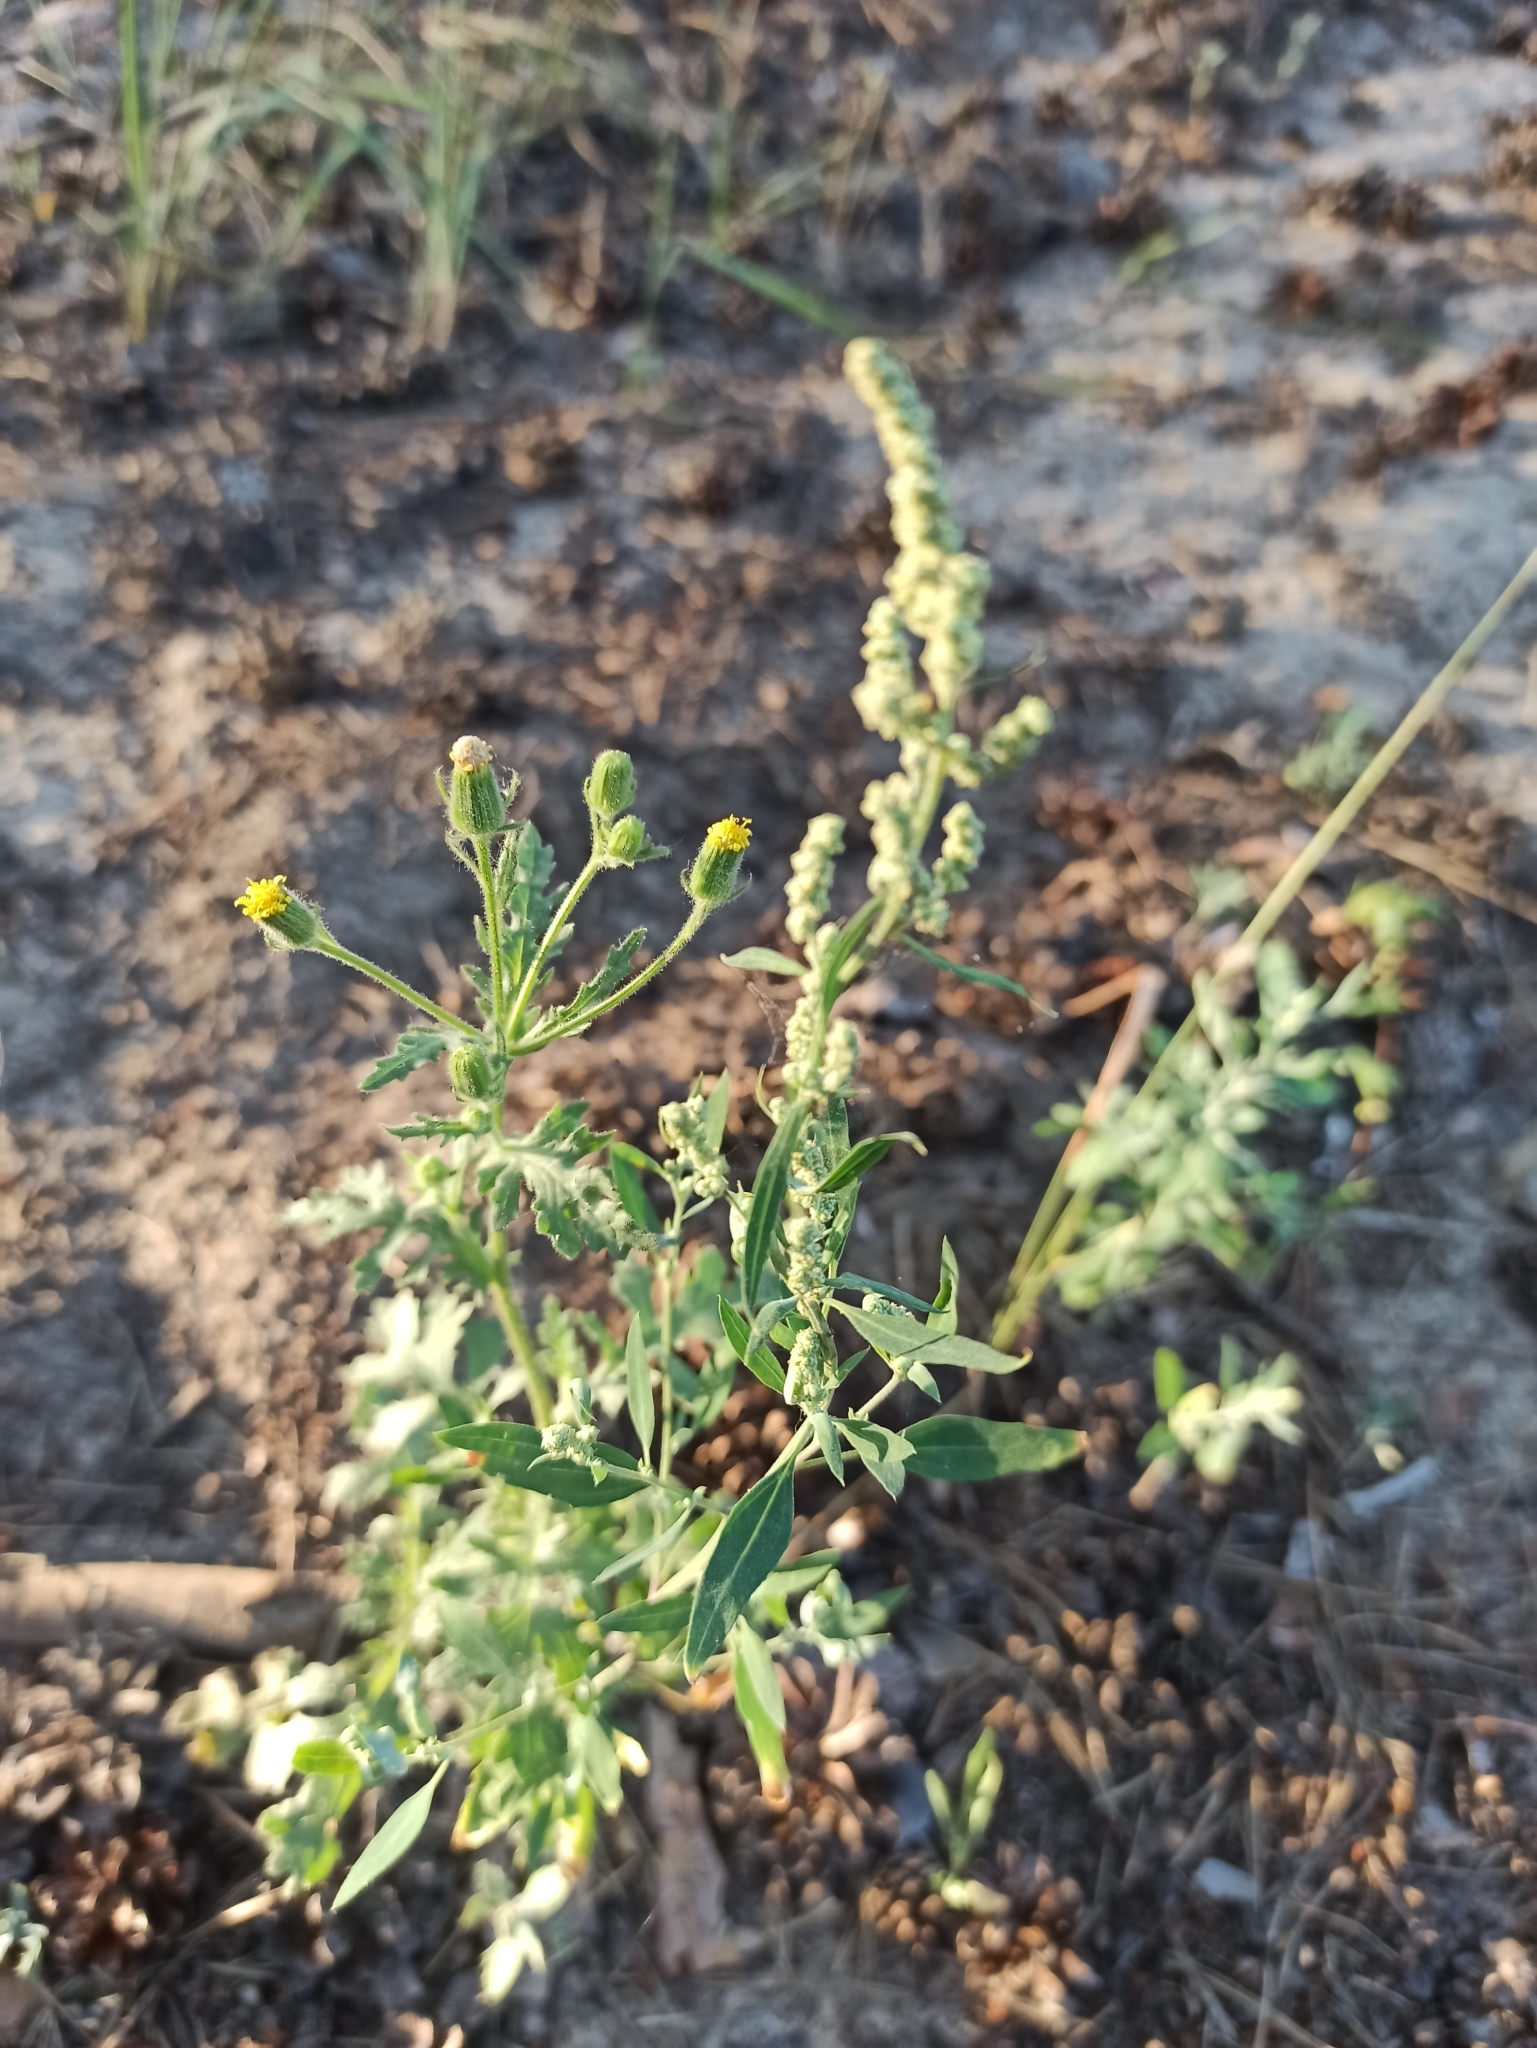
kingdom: Plantae
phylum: Tracheophyta
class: Magnoliopsida
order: Asterales
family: Asteraceae
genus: Senecio
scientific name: Senecio viscosus
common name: Sticky groundsel
